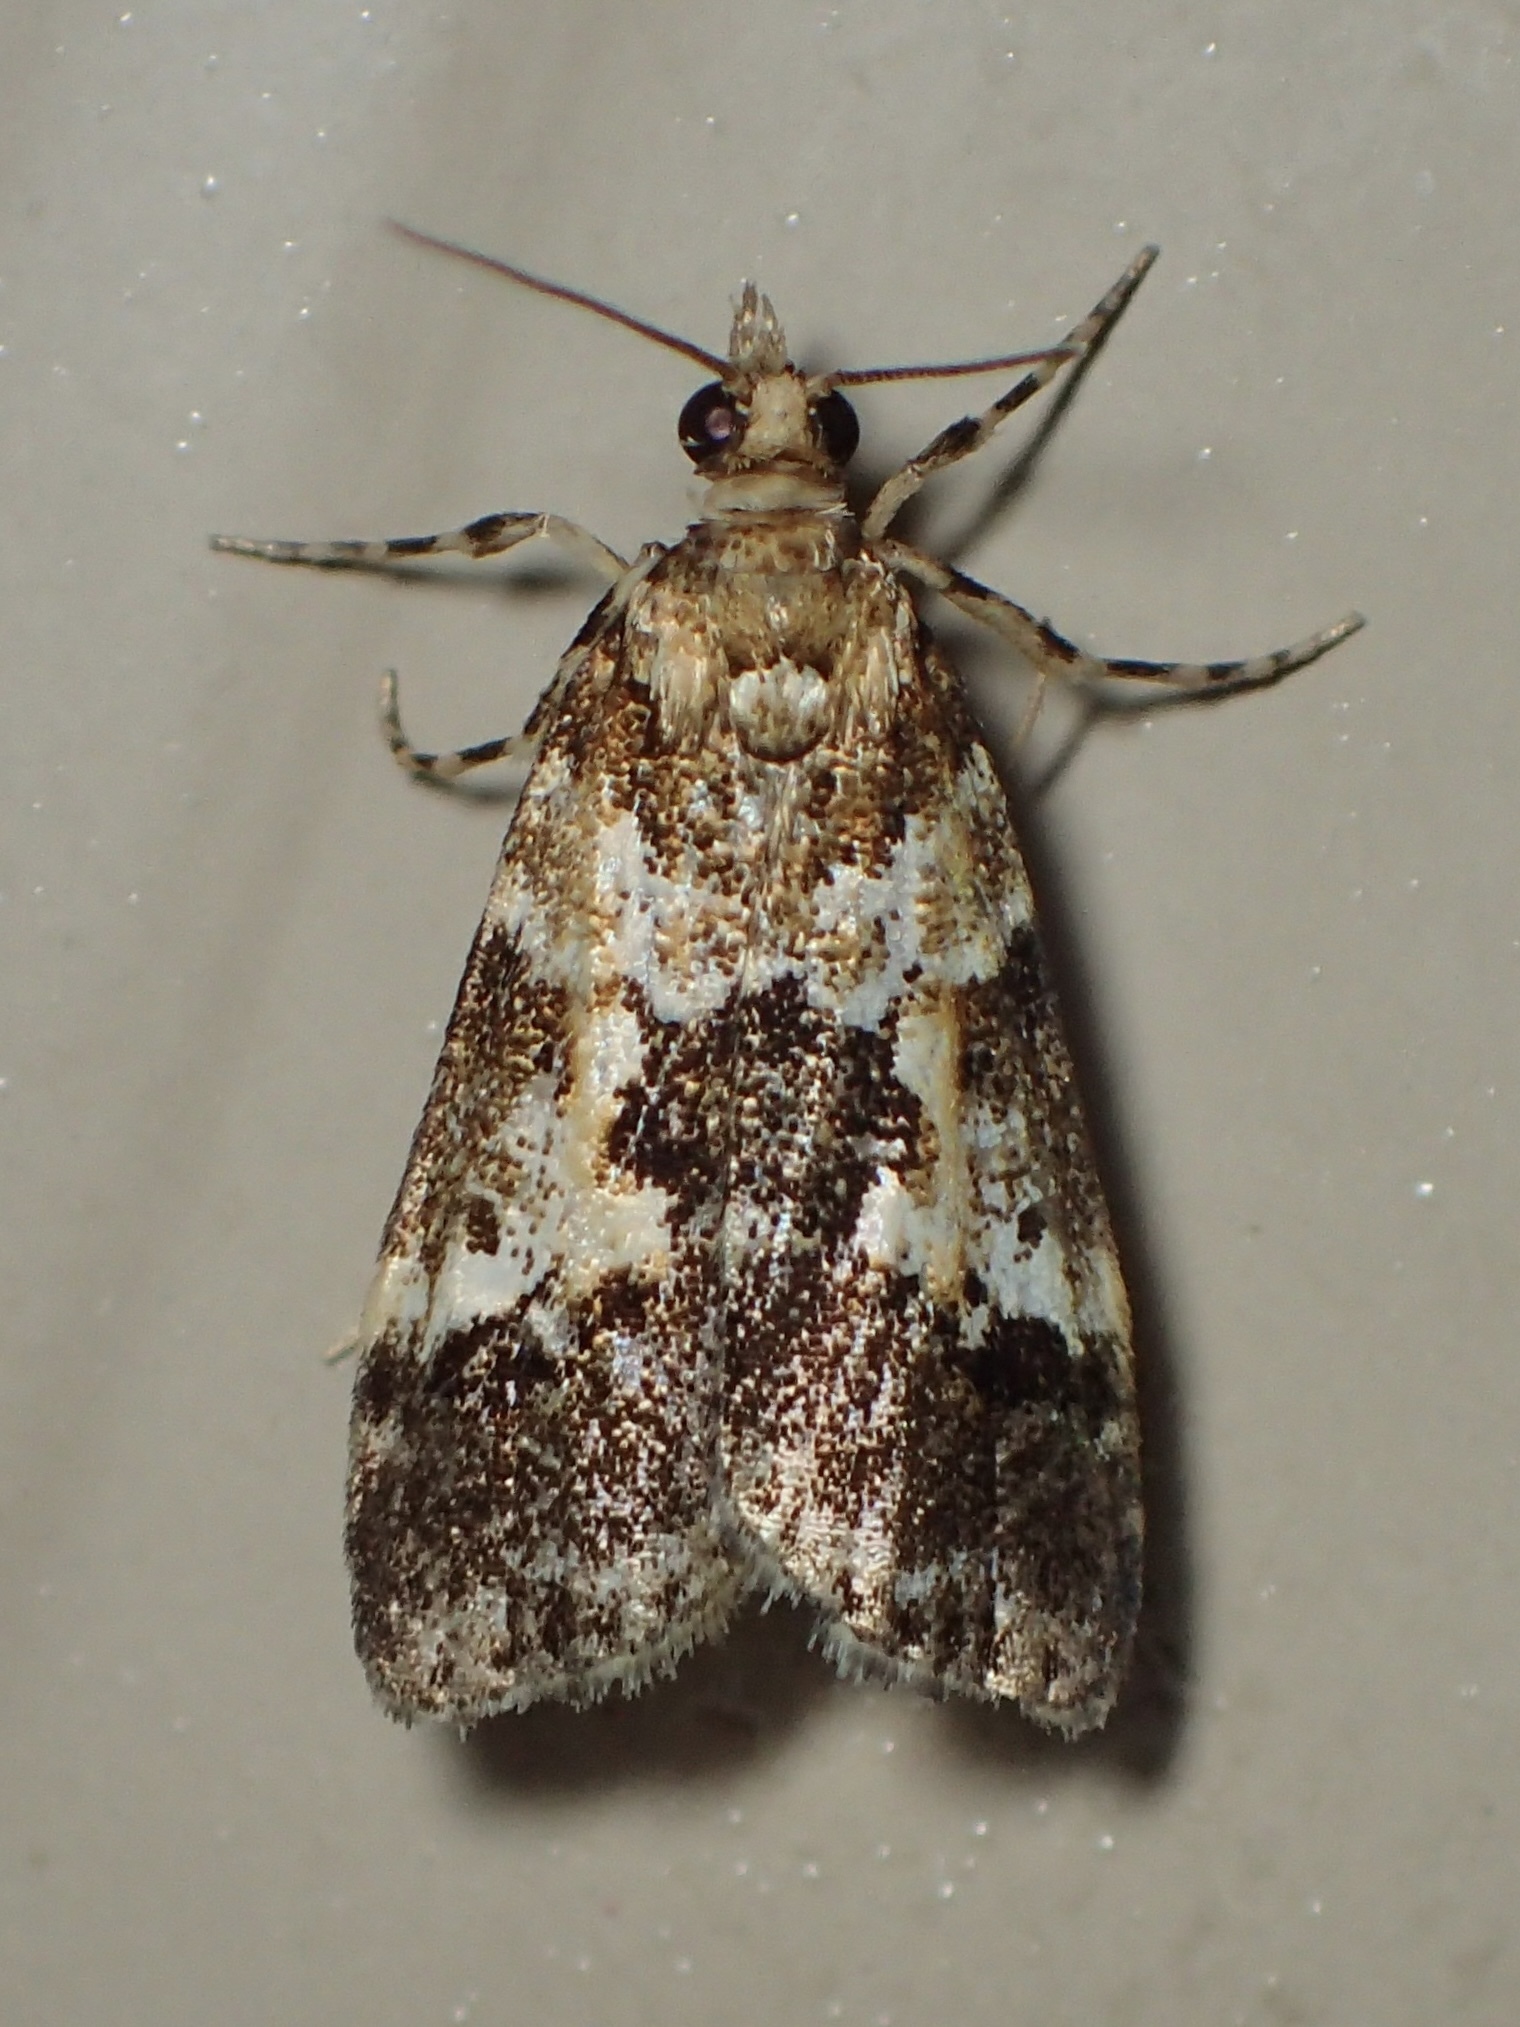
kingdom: Animalia
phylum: Arthropoda
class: Insecta
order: Lepidoptera
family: Crambidae
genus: Eudonia
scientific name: Eudonia characta
